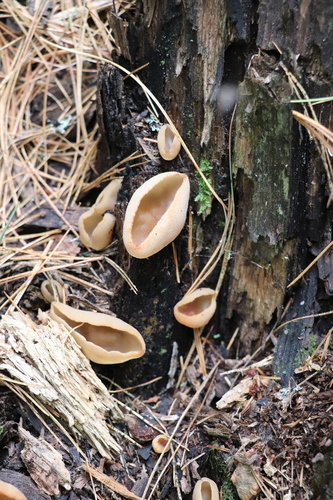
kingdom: Fungi
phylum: Ascomycota
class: Pezizomycetes
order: Pezizales
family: Pezizaceae
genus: Peziza
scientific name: Peziza varia
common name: Layered cup
